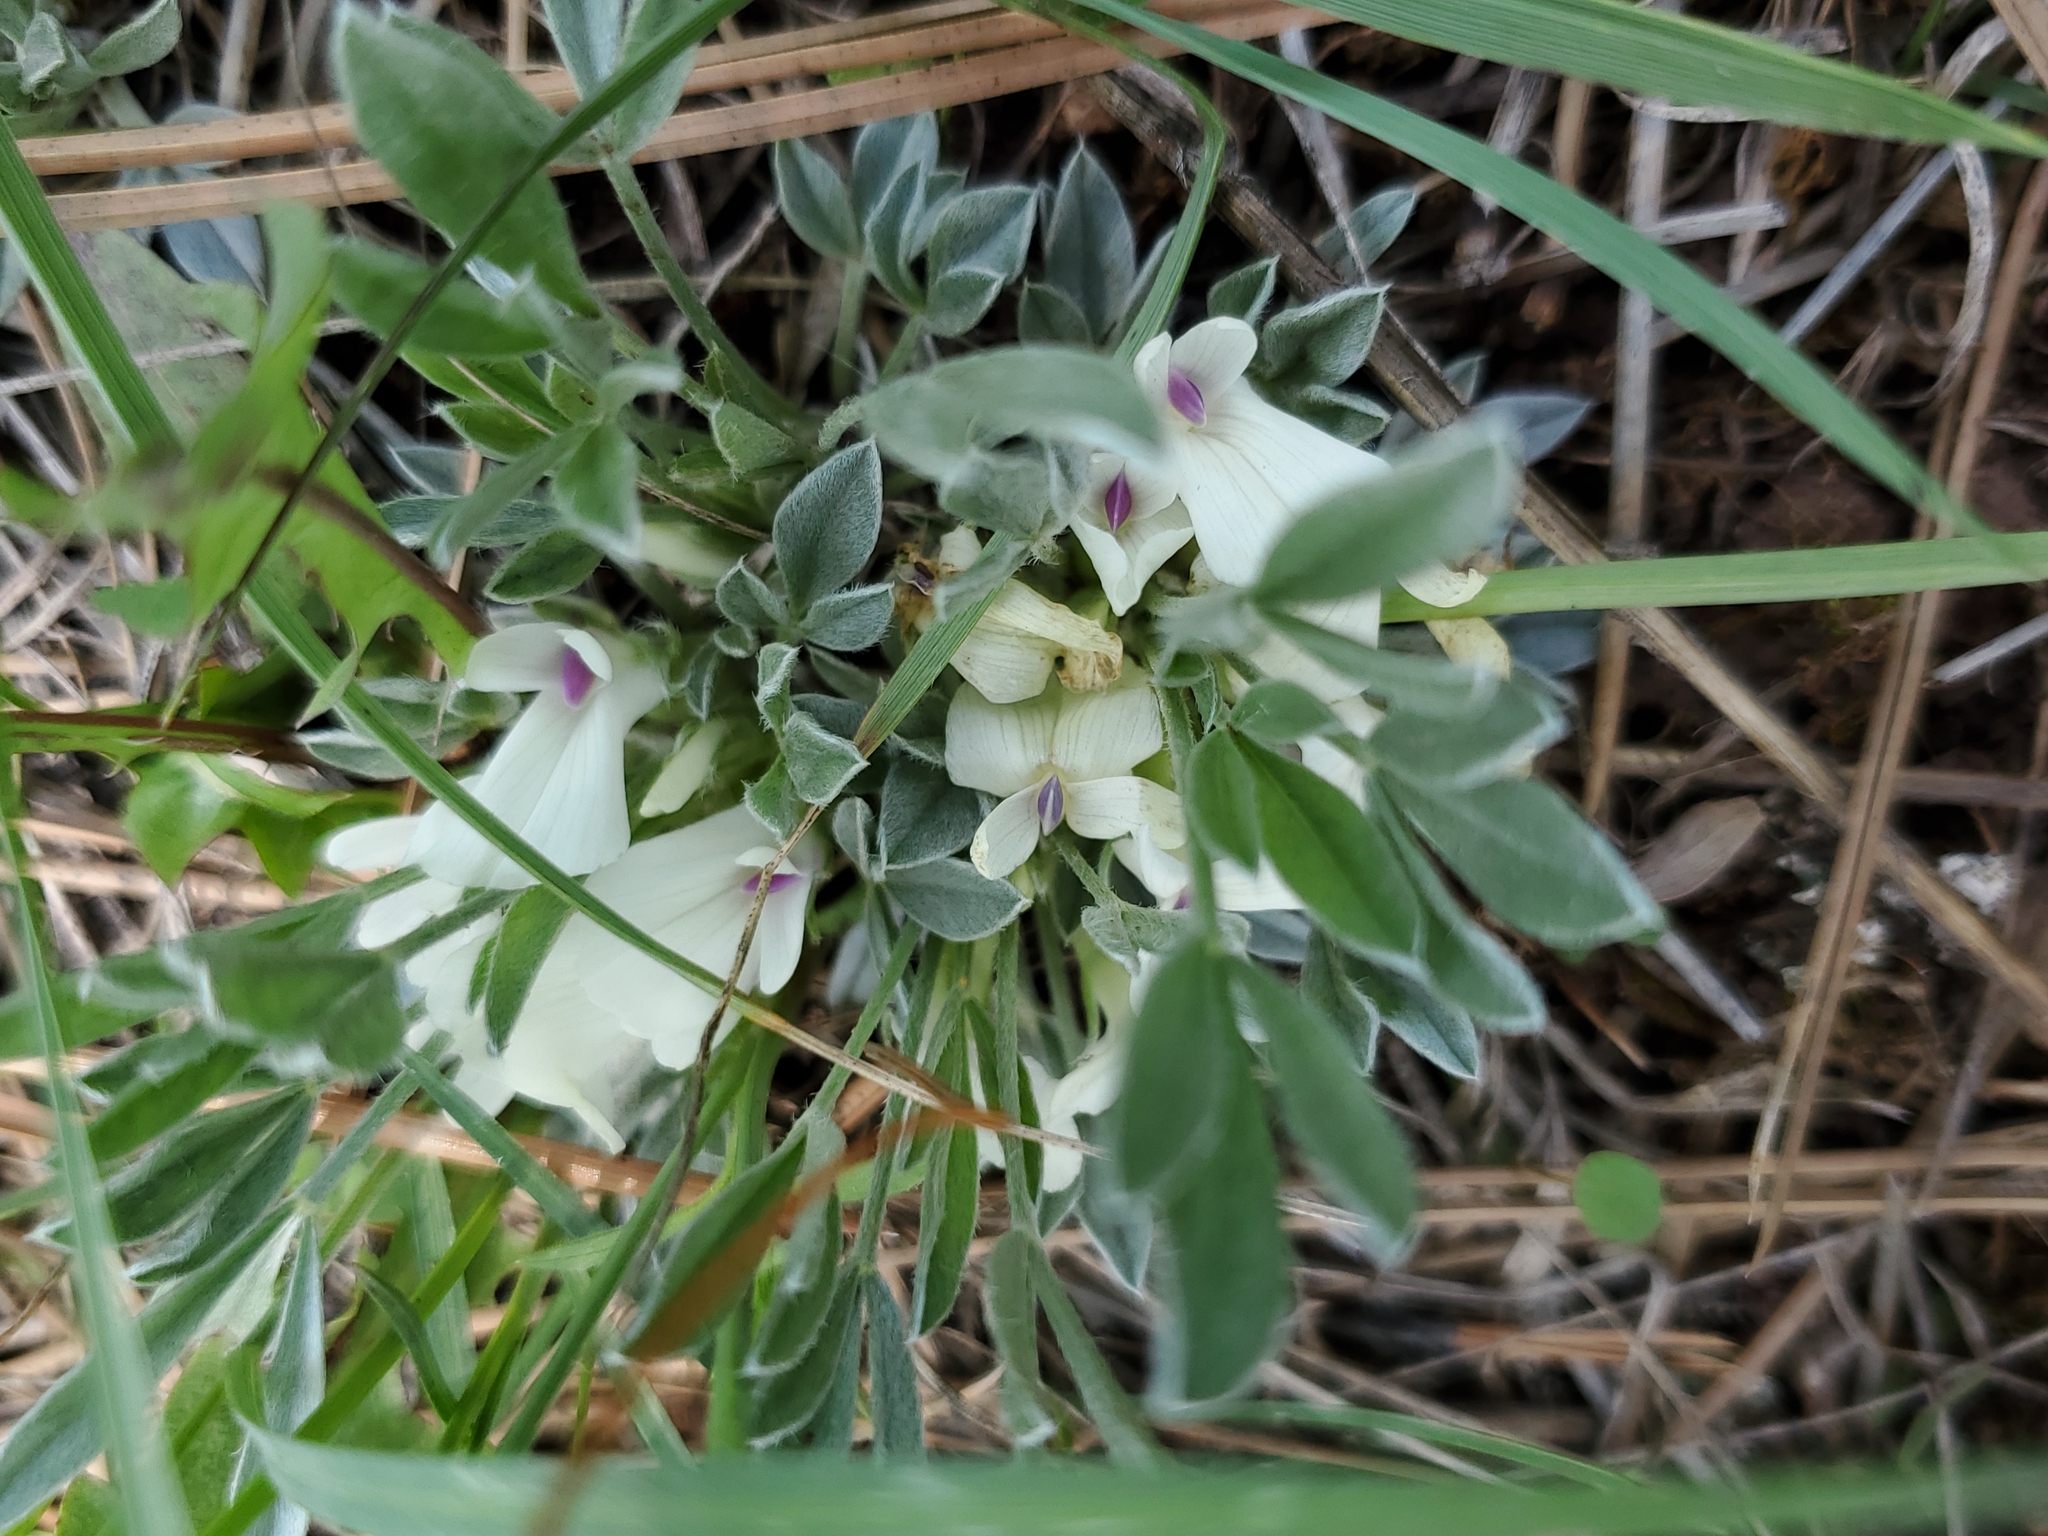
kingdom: Plantae
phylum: Tracheophyta
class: Magnoliopsida
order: Fabales
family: Fabaceae
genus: Astragalus
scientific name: Astragalus gilviflorus
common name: Cushion milk-vetch
